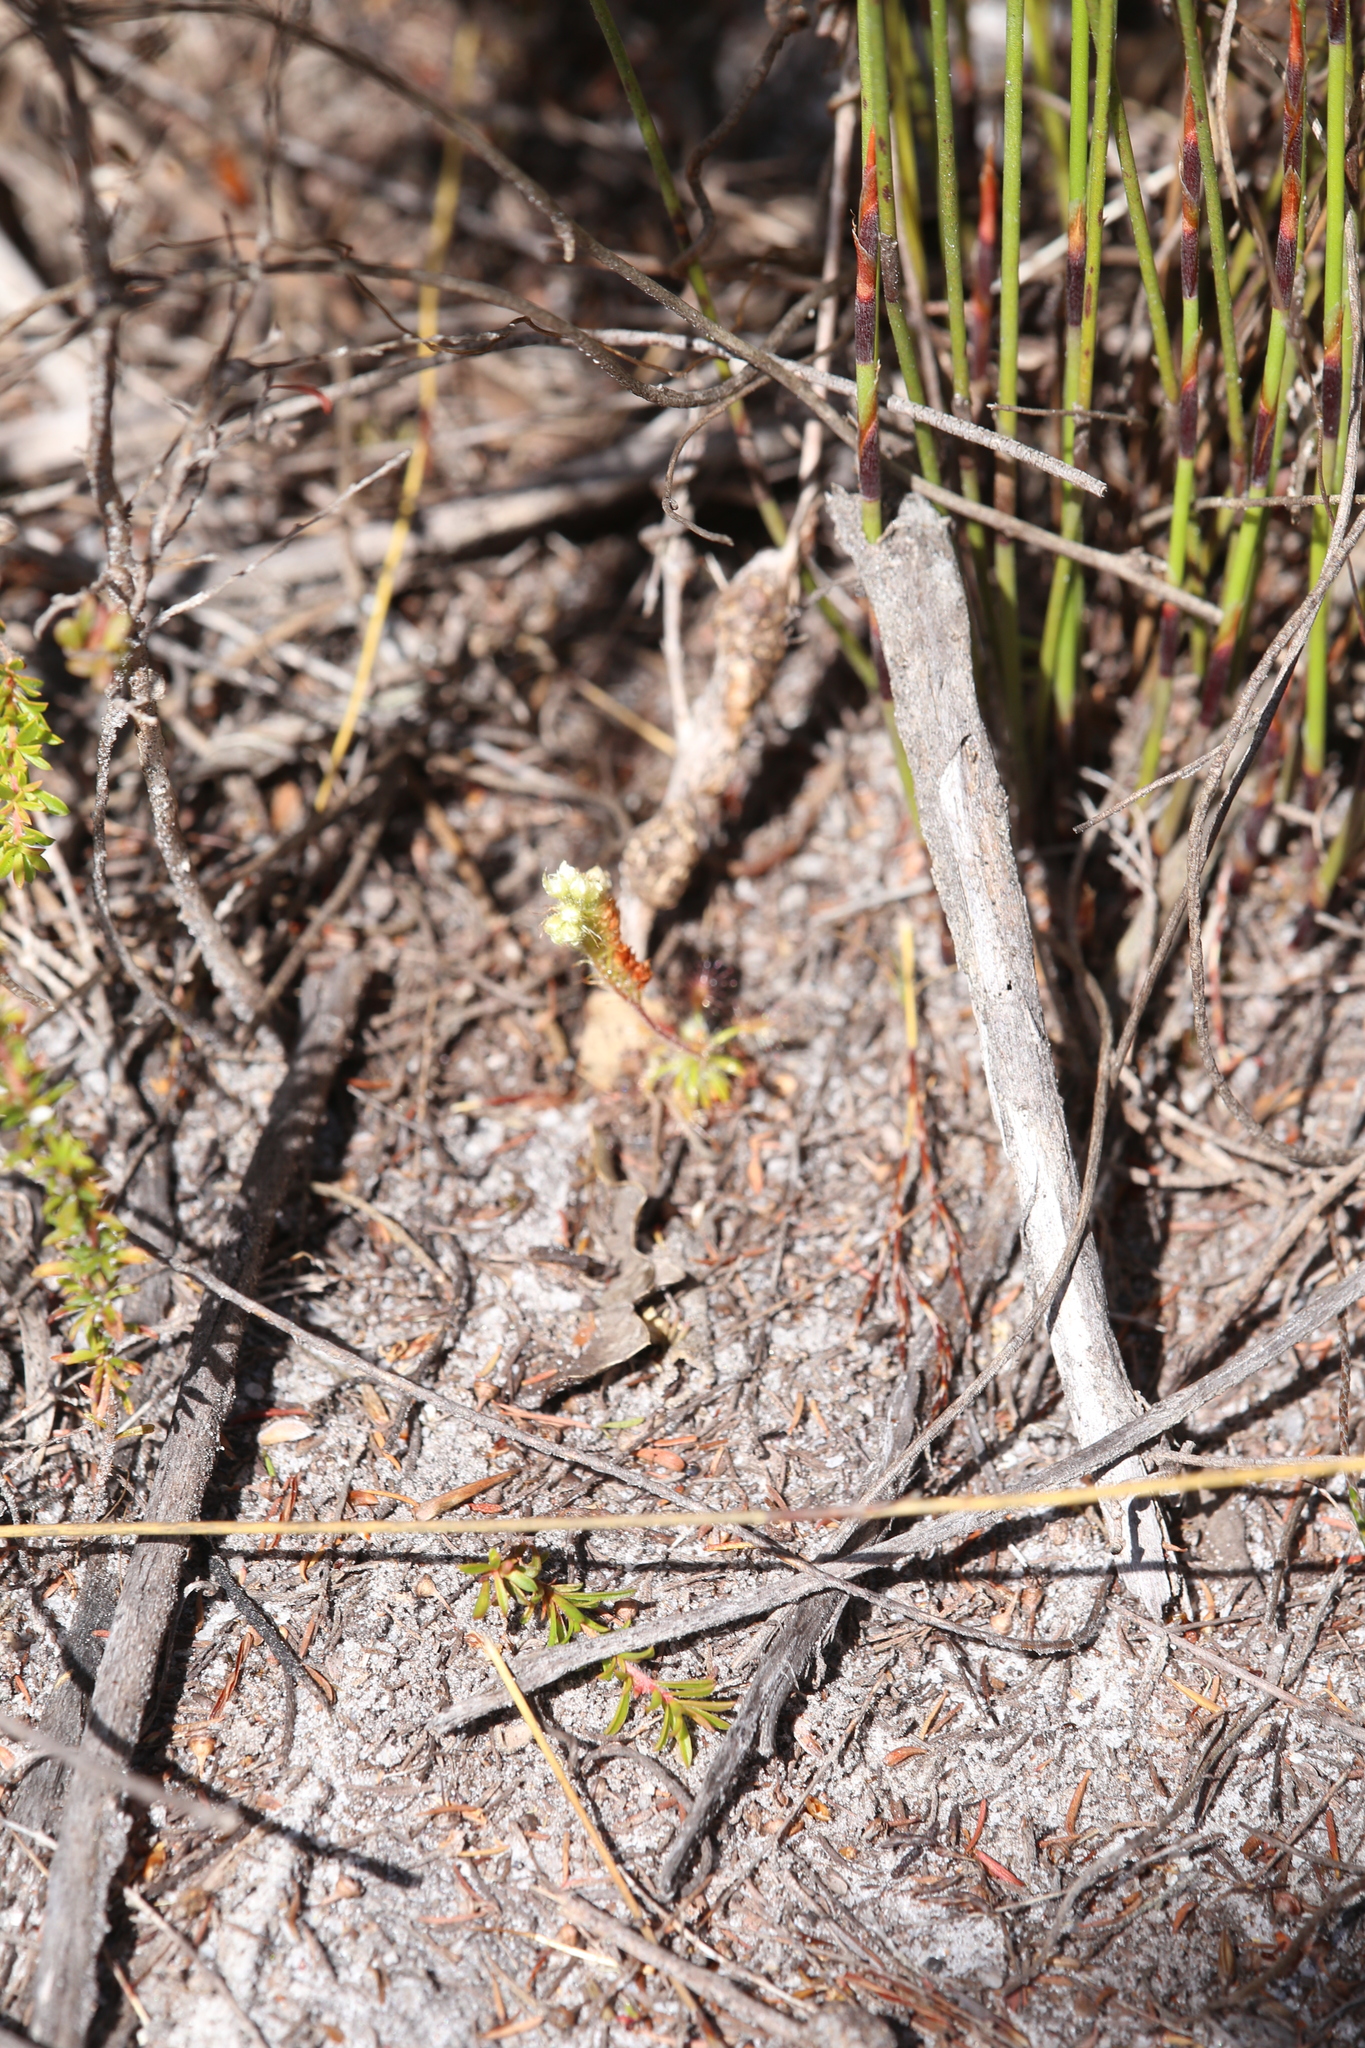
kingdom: Plantae
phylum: Tracheophyta
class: Magnoliopsida
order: Caryophyllales
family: Droseraceae
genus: Drosera
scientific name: Drosera paleacea
